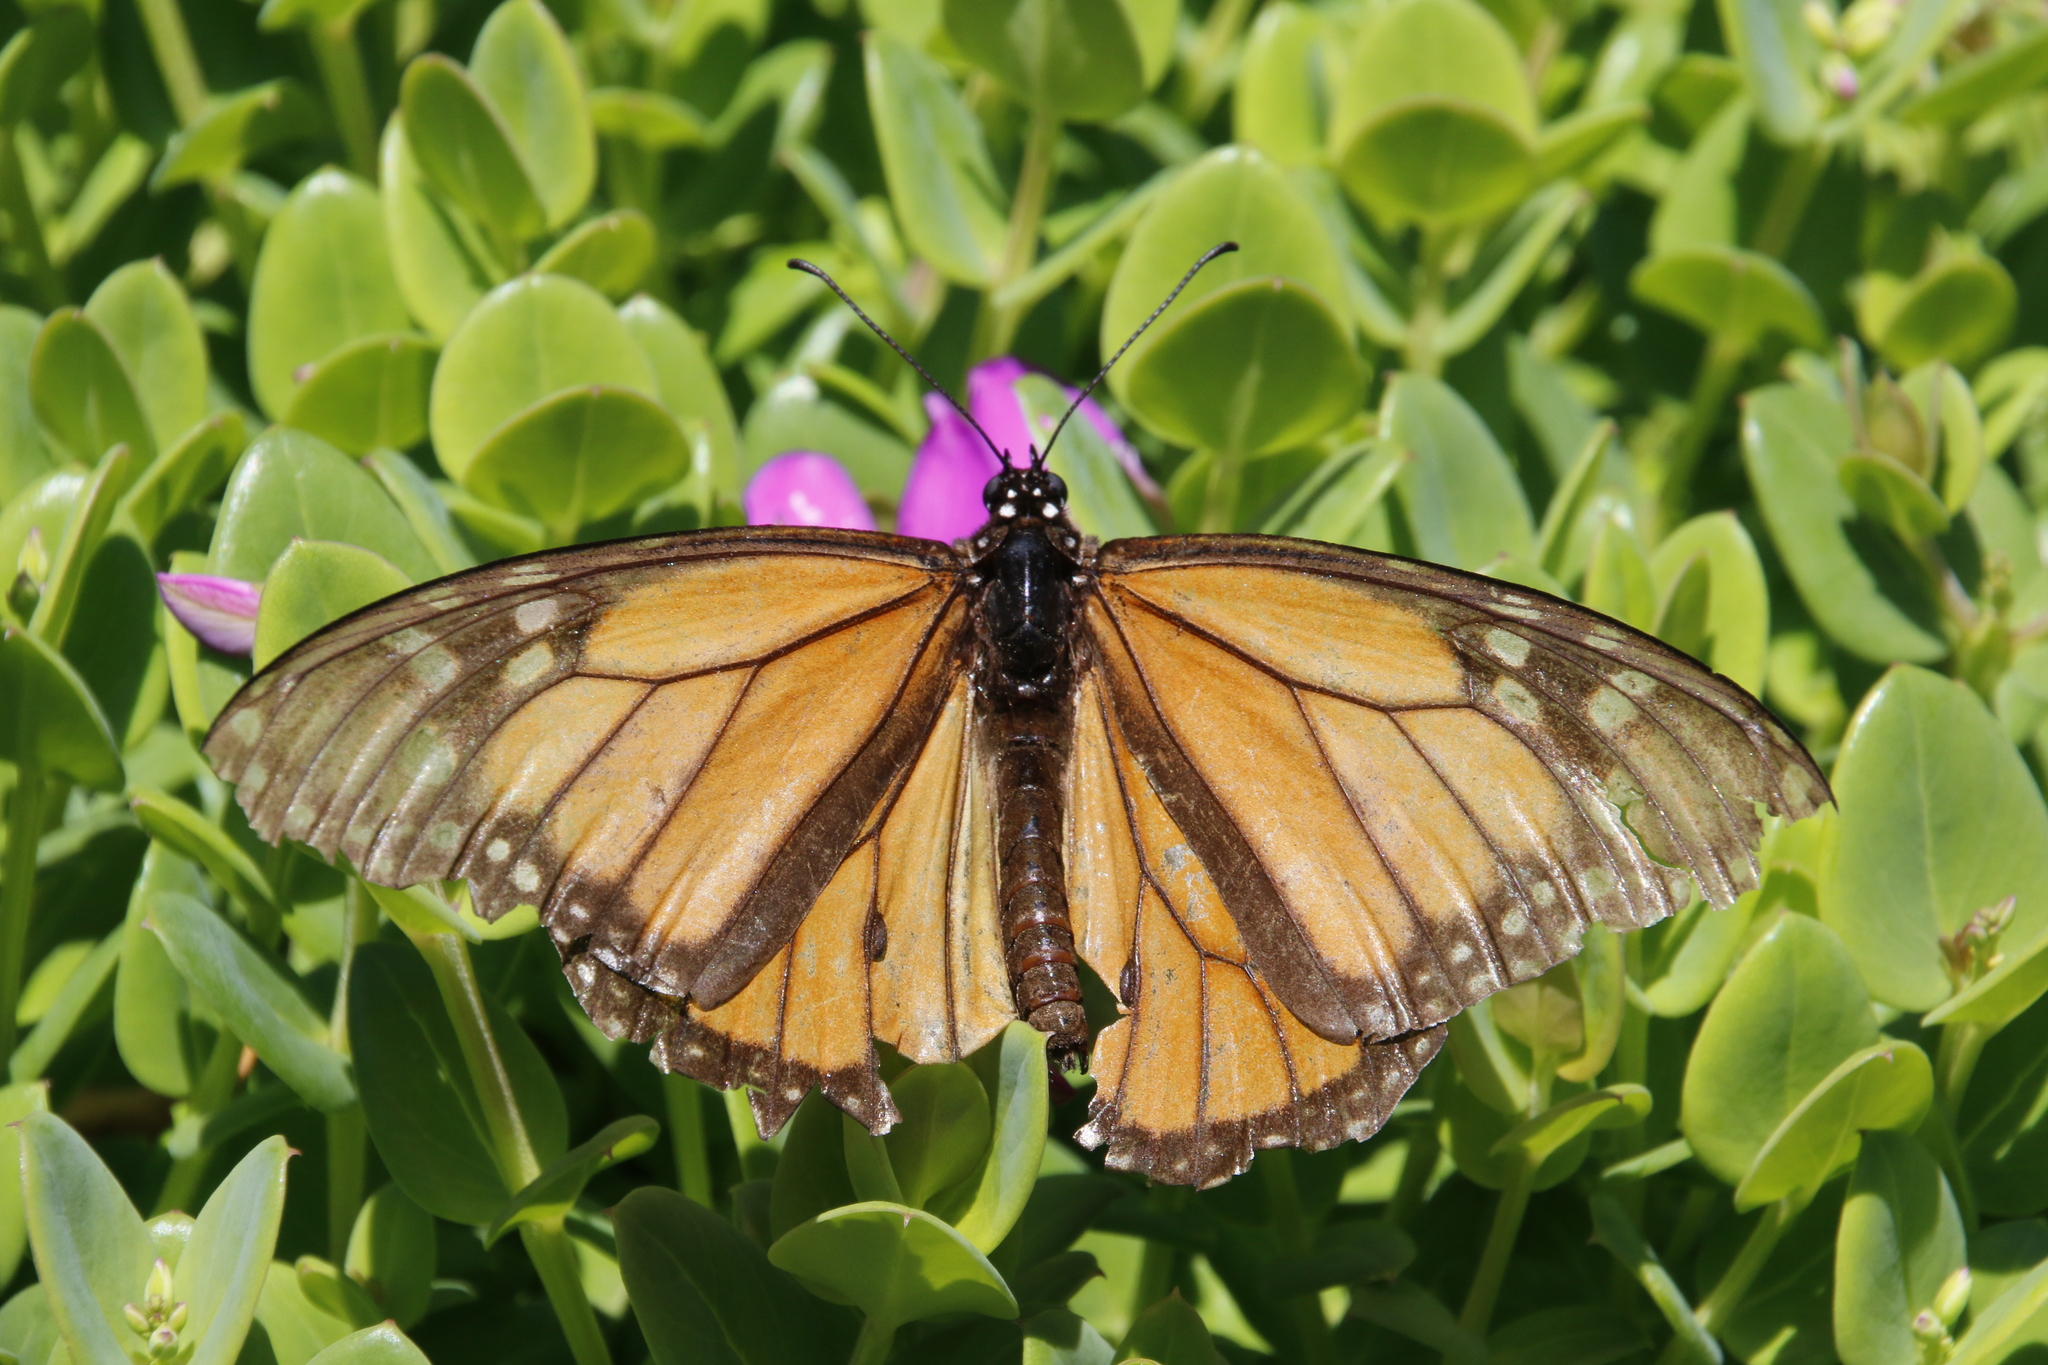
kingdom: Animalia
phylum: Arthropoda
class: Insecta
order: Lepidoptera
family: Nymphalidae
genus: Danaus
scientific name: Danaus plexippus
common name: Monarch
